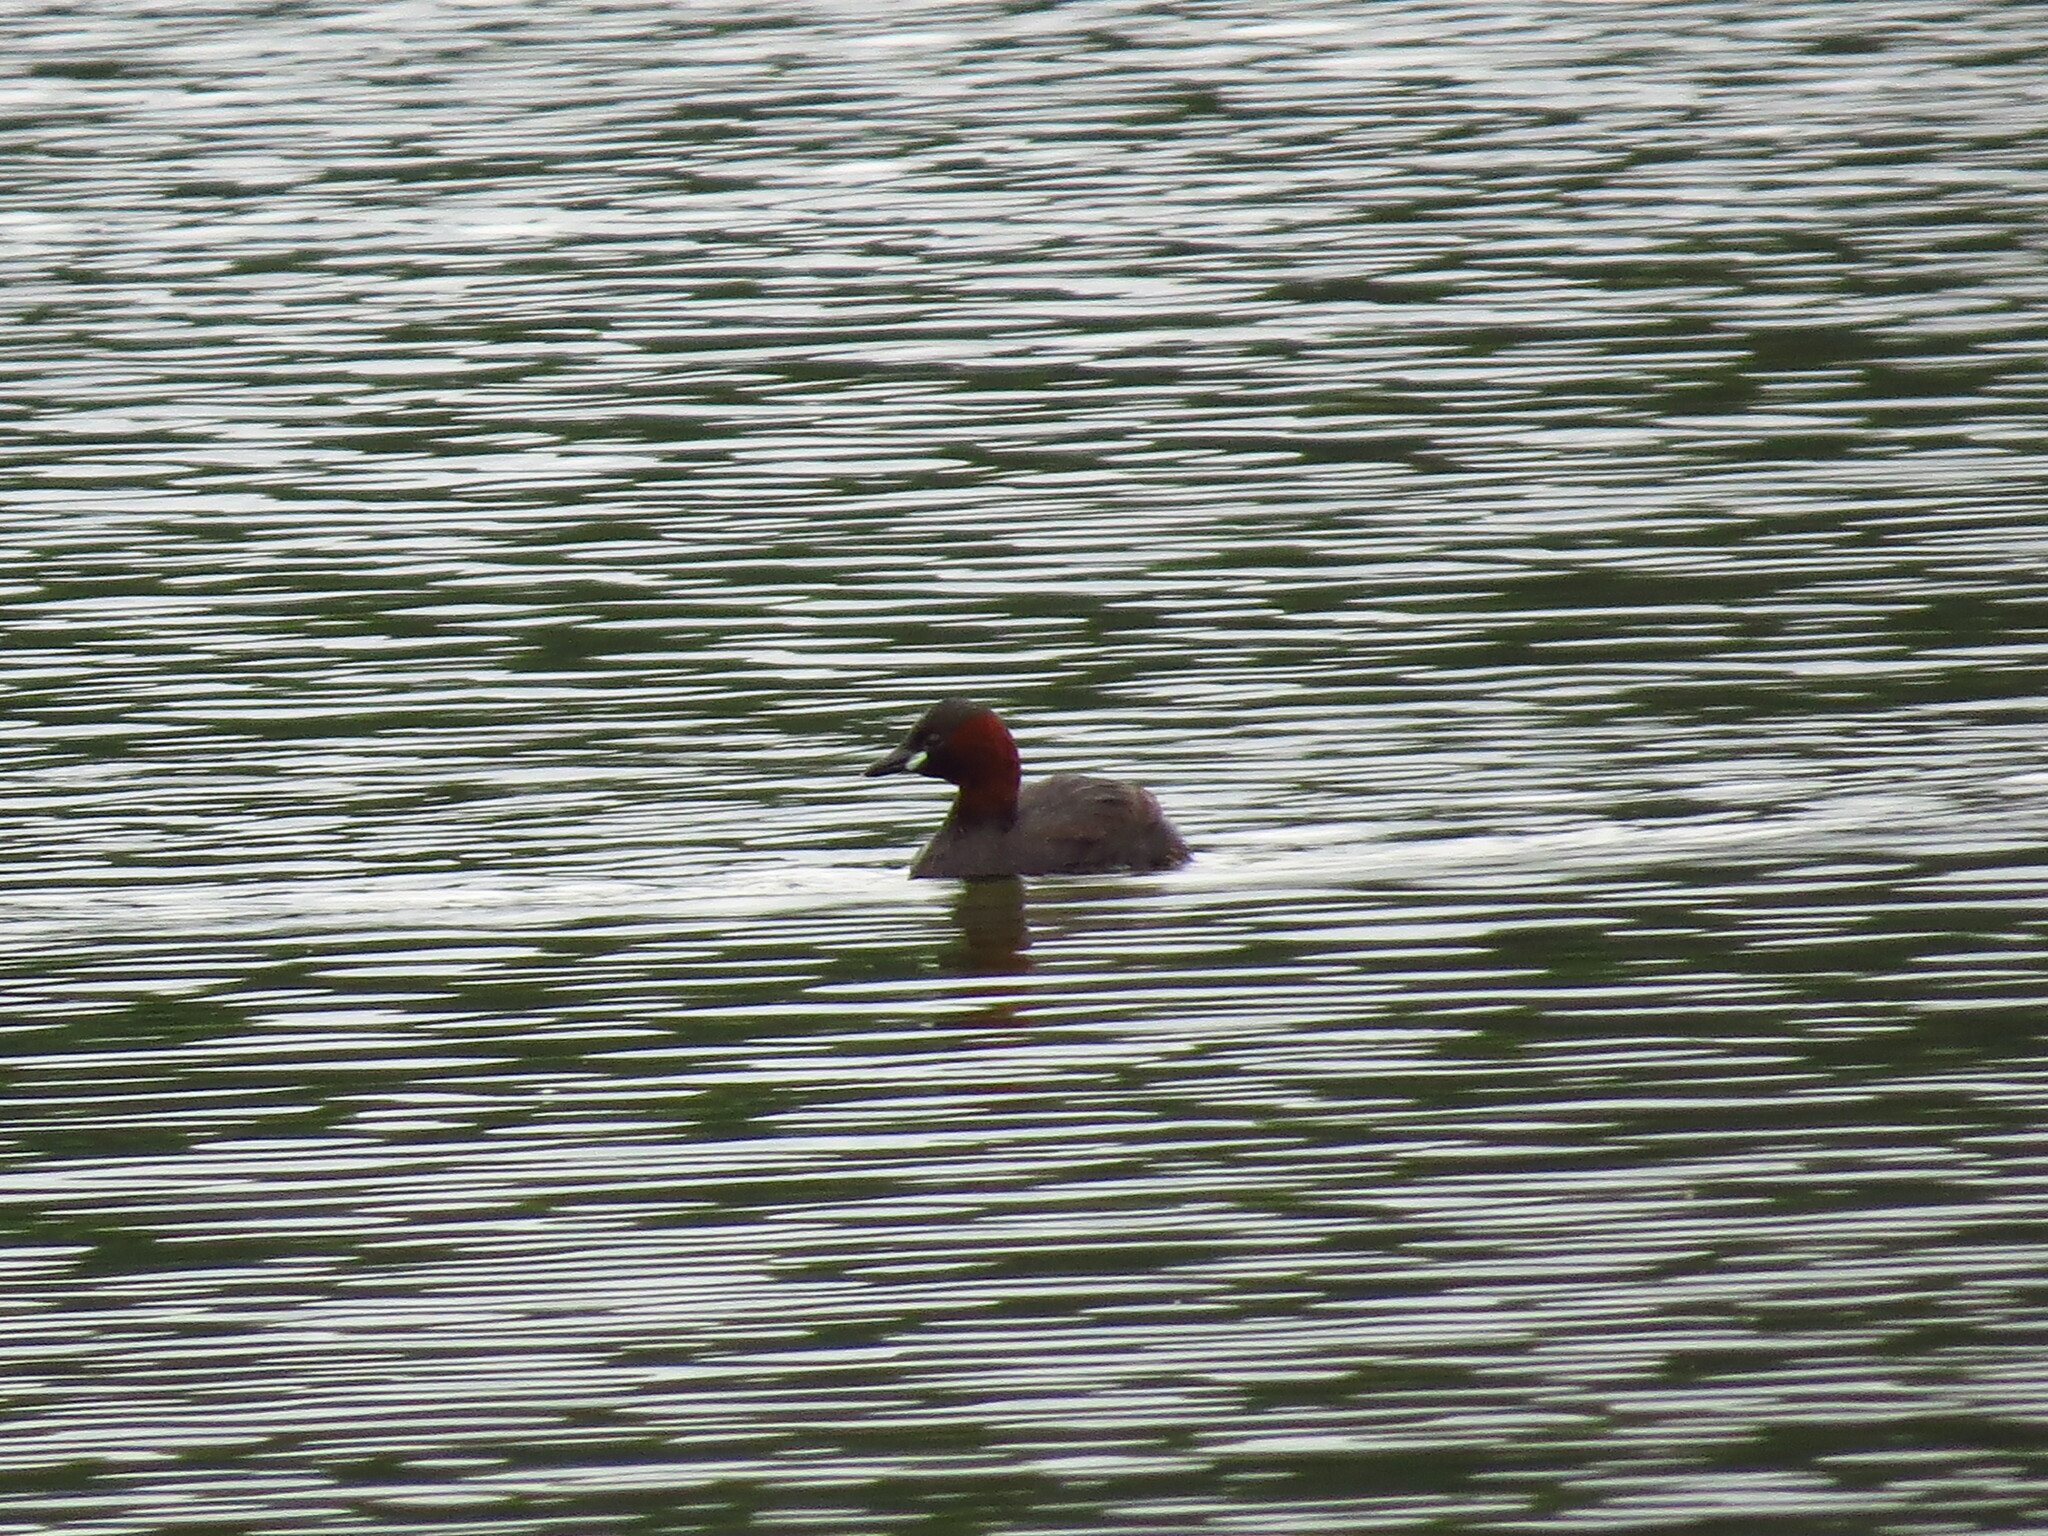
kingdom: Animalia
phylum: Chordata
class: Aves
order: Podicipediformes
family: Podicipedidae
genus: Tachybaptus
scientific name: Tachybaptus ruficollis
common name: Little grebe
